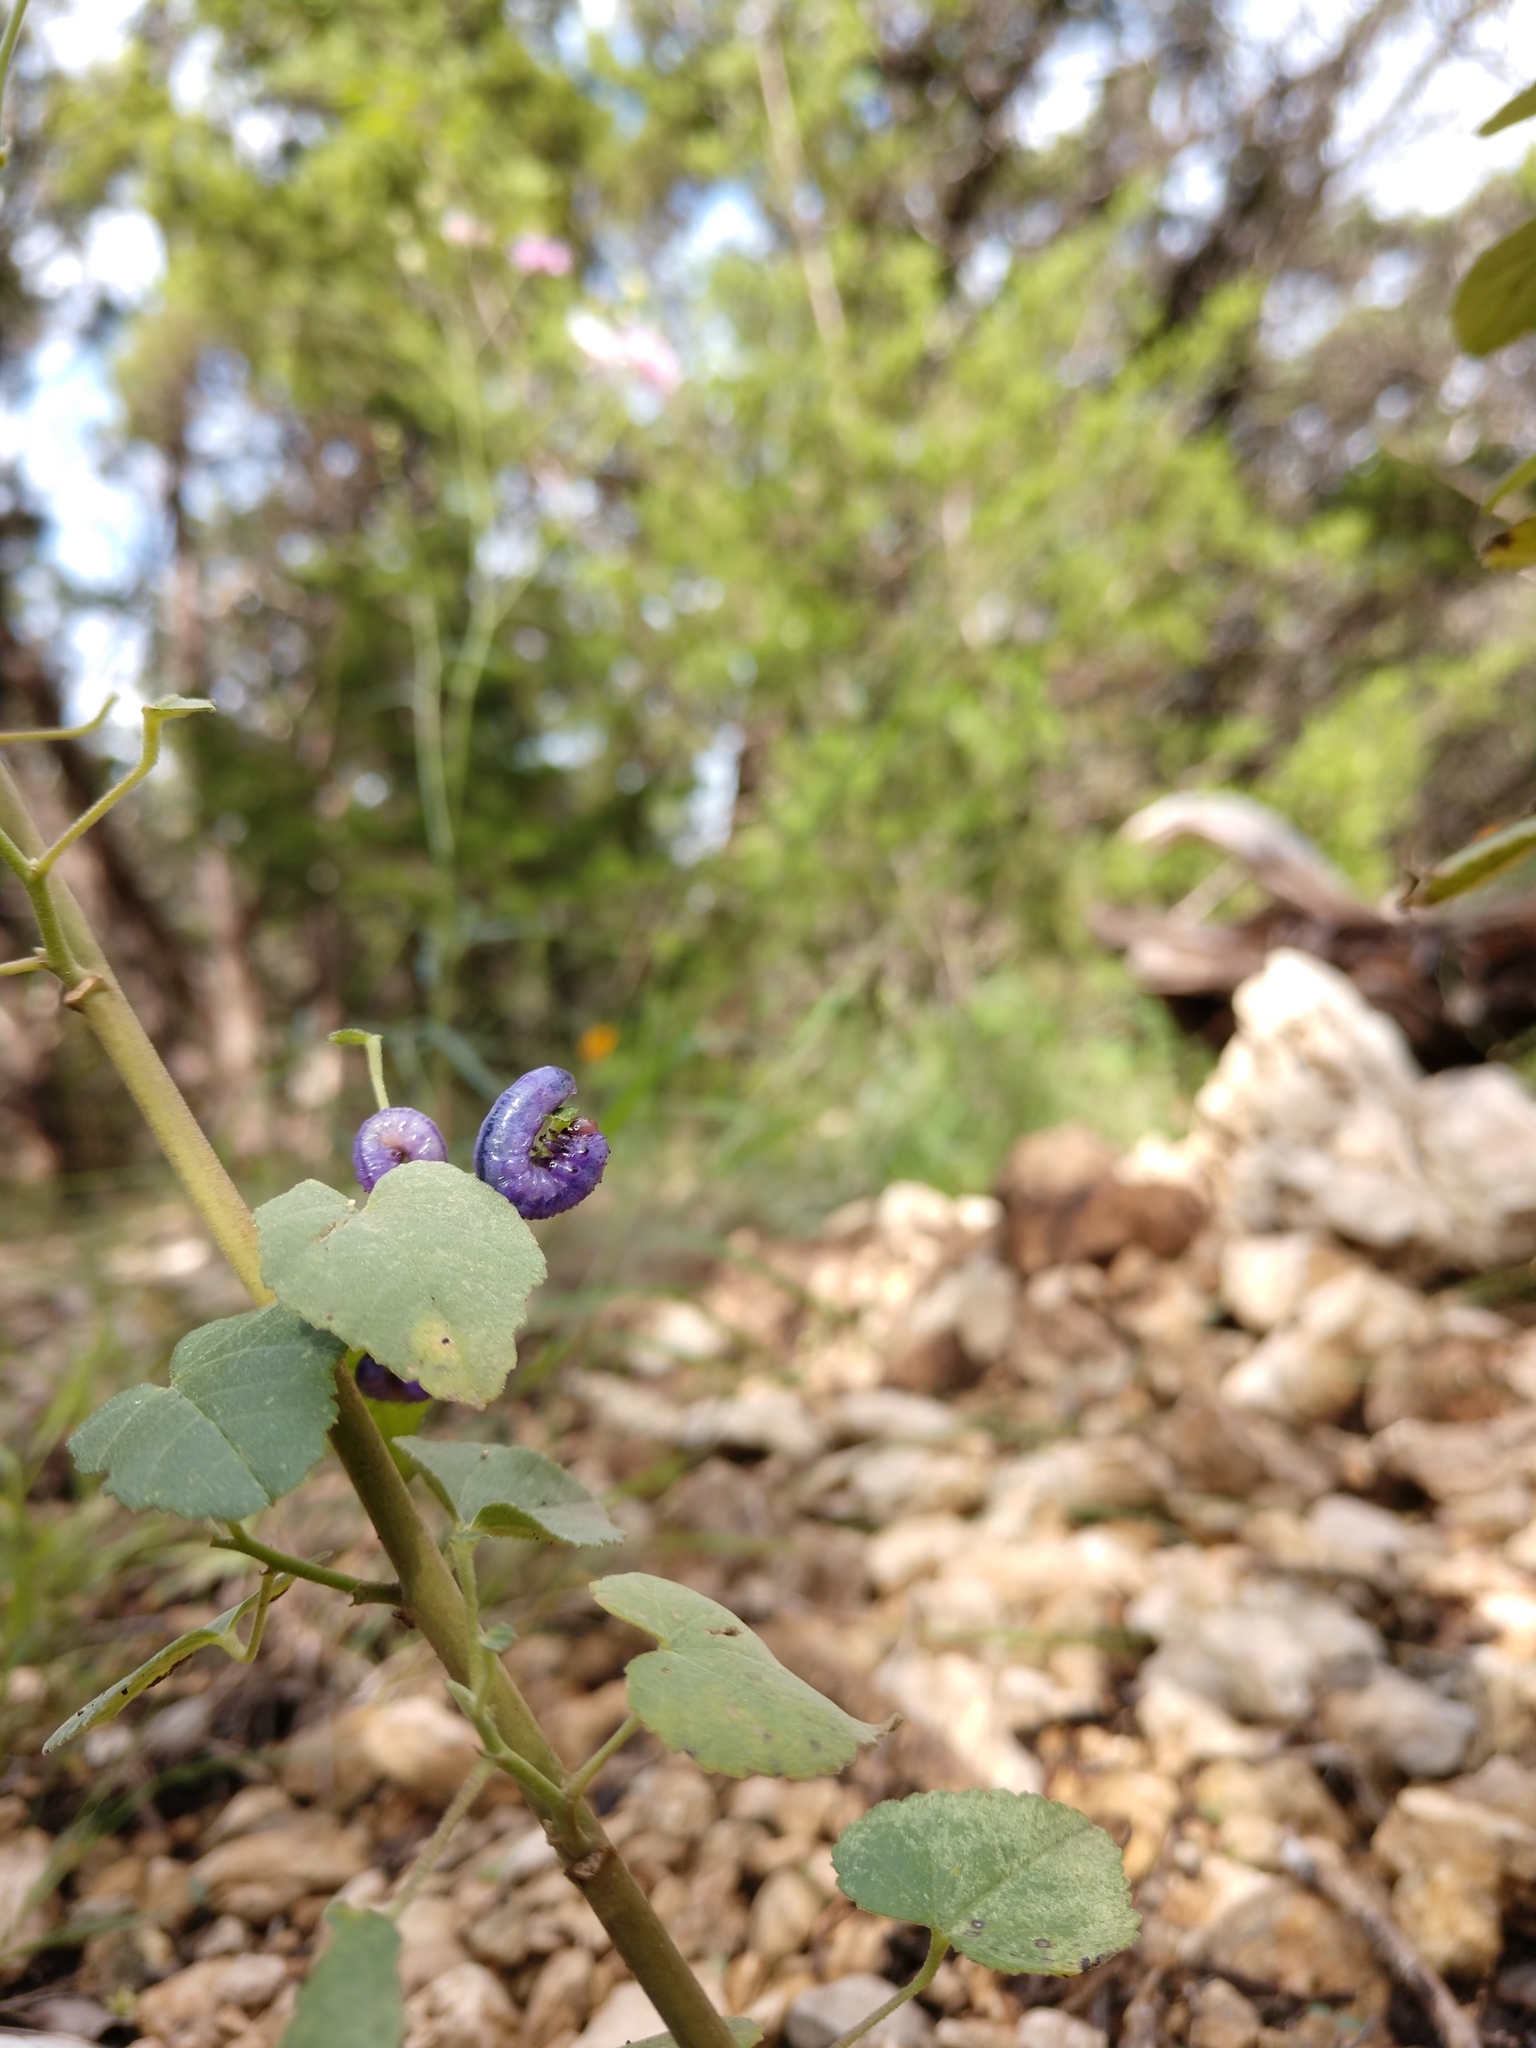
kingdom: Animalia
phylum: Arthropoda
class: Insecta
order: Hymenoptera
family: Argidae
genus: Neoptilia
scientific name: Neoptilia
